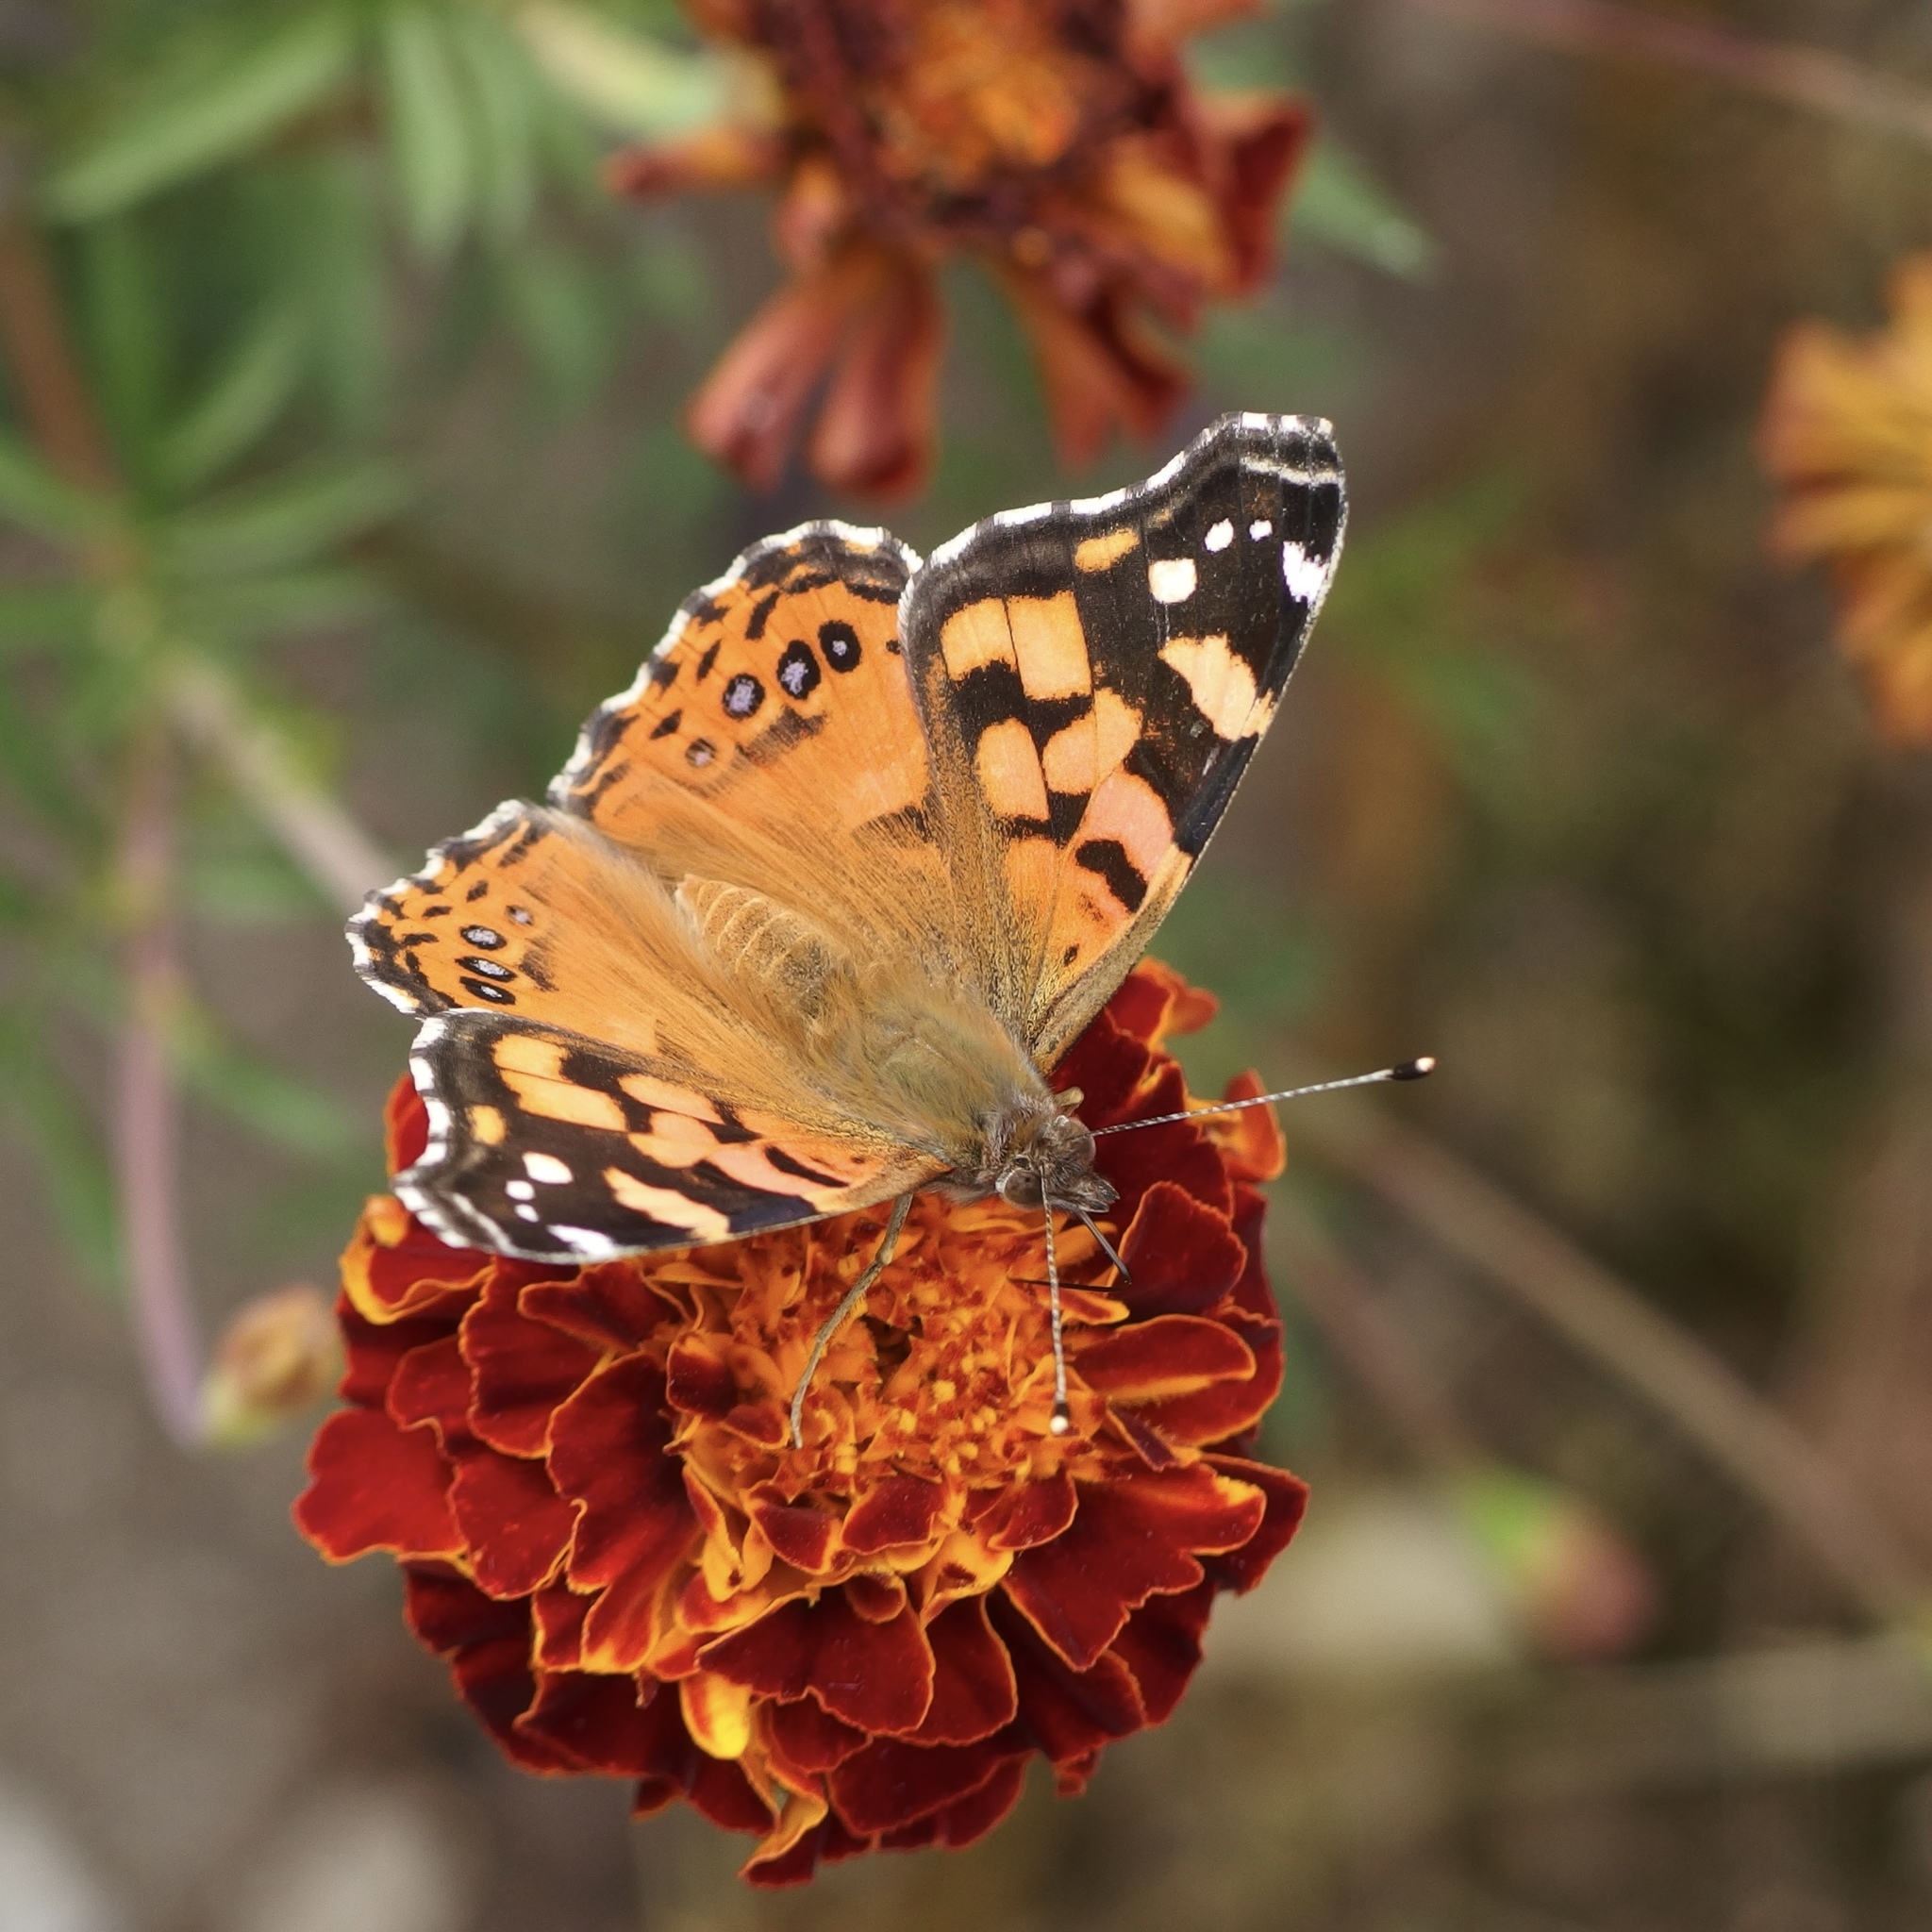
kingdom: Animalia
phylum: Arthropoda
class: Insecta
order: Lepidoptera
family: Nymphalidae
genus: Vanessa
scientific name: Vanessa carye
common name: Subtropical lady
